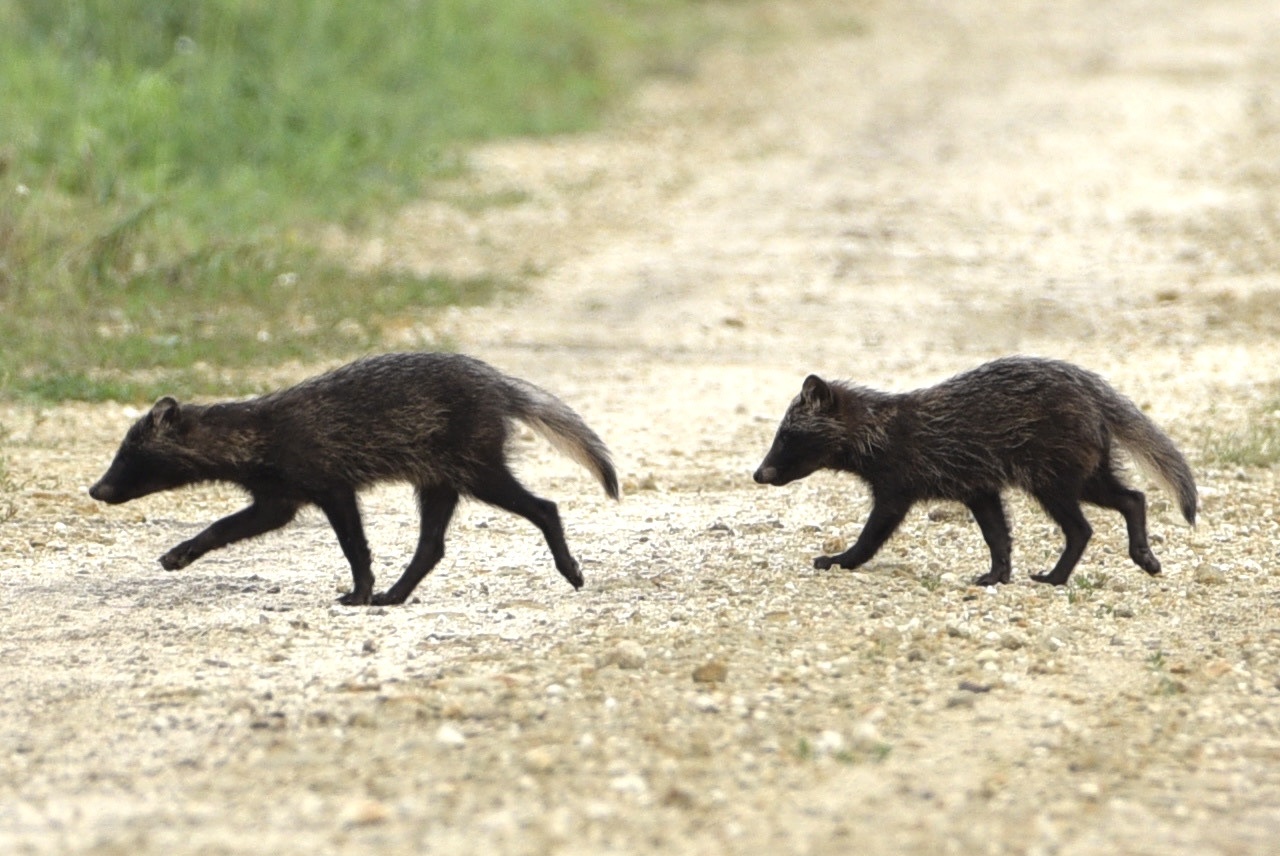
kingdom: Animalia
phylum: Chordata
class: Mammalia
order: Carnivora
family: Canidae
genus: Nyctereutes
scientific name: Nyctereutes procyonoides
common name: Raccoon dog
